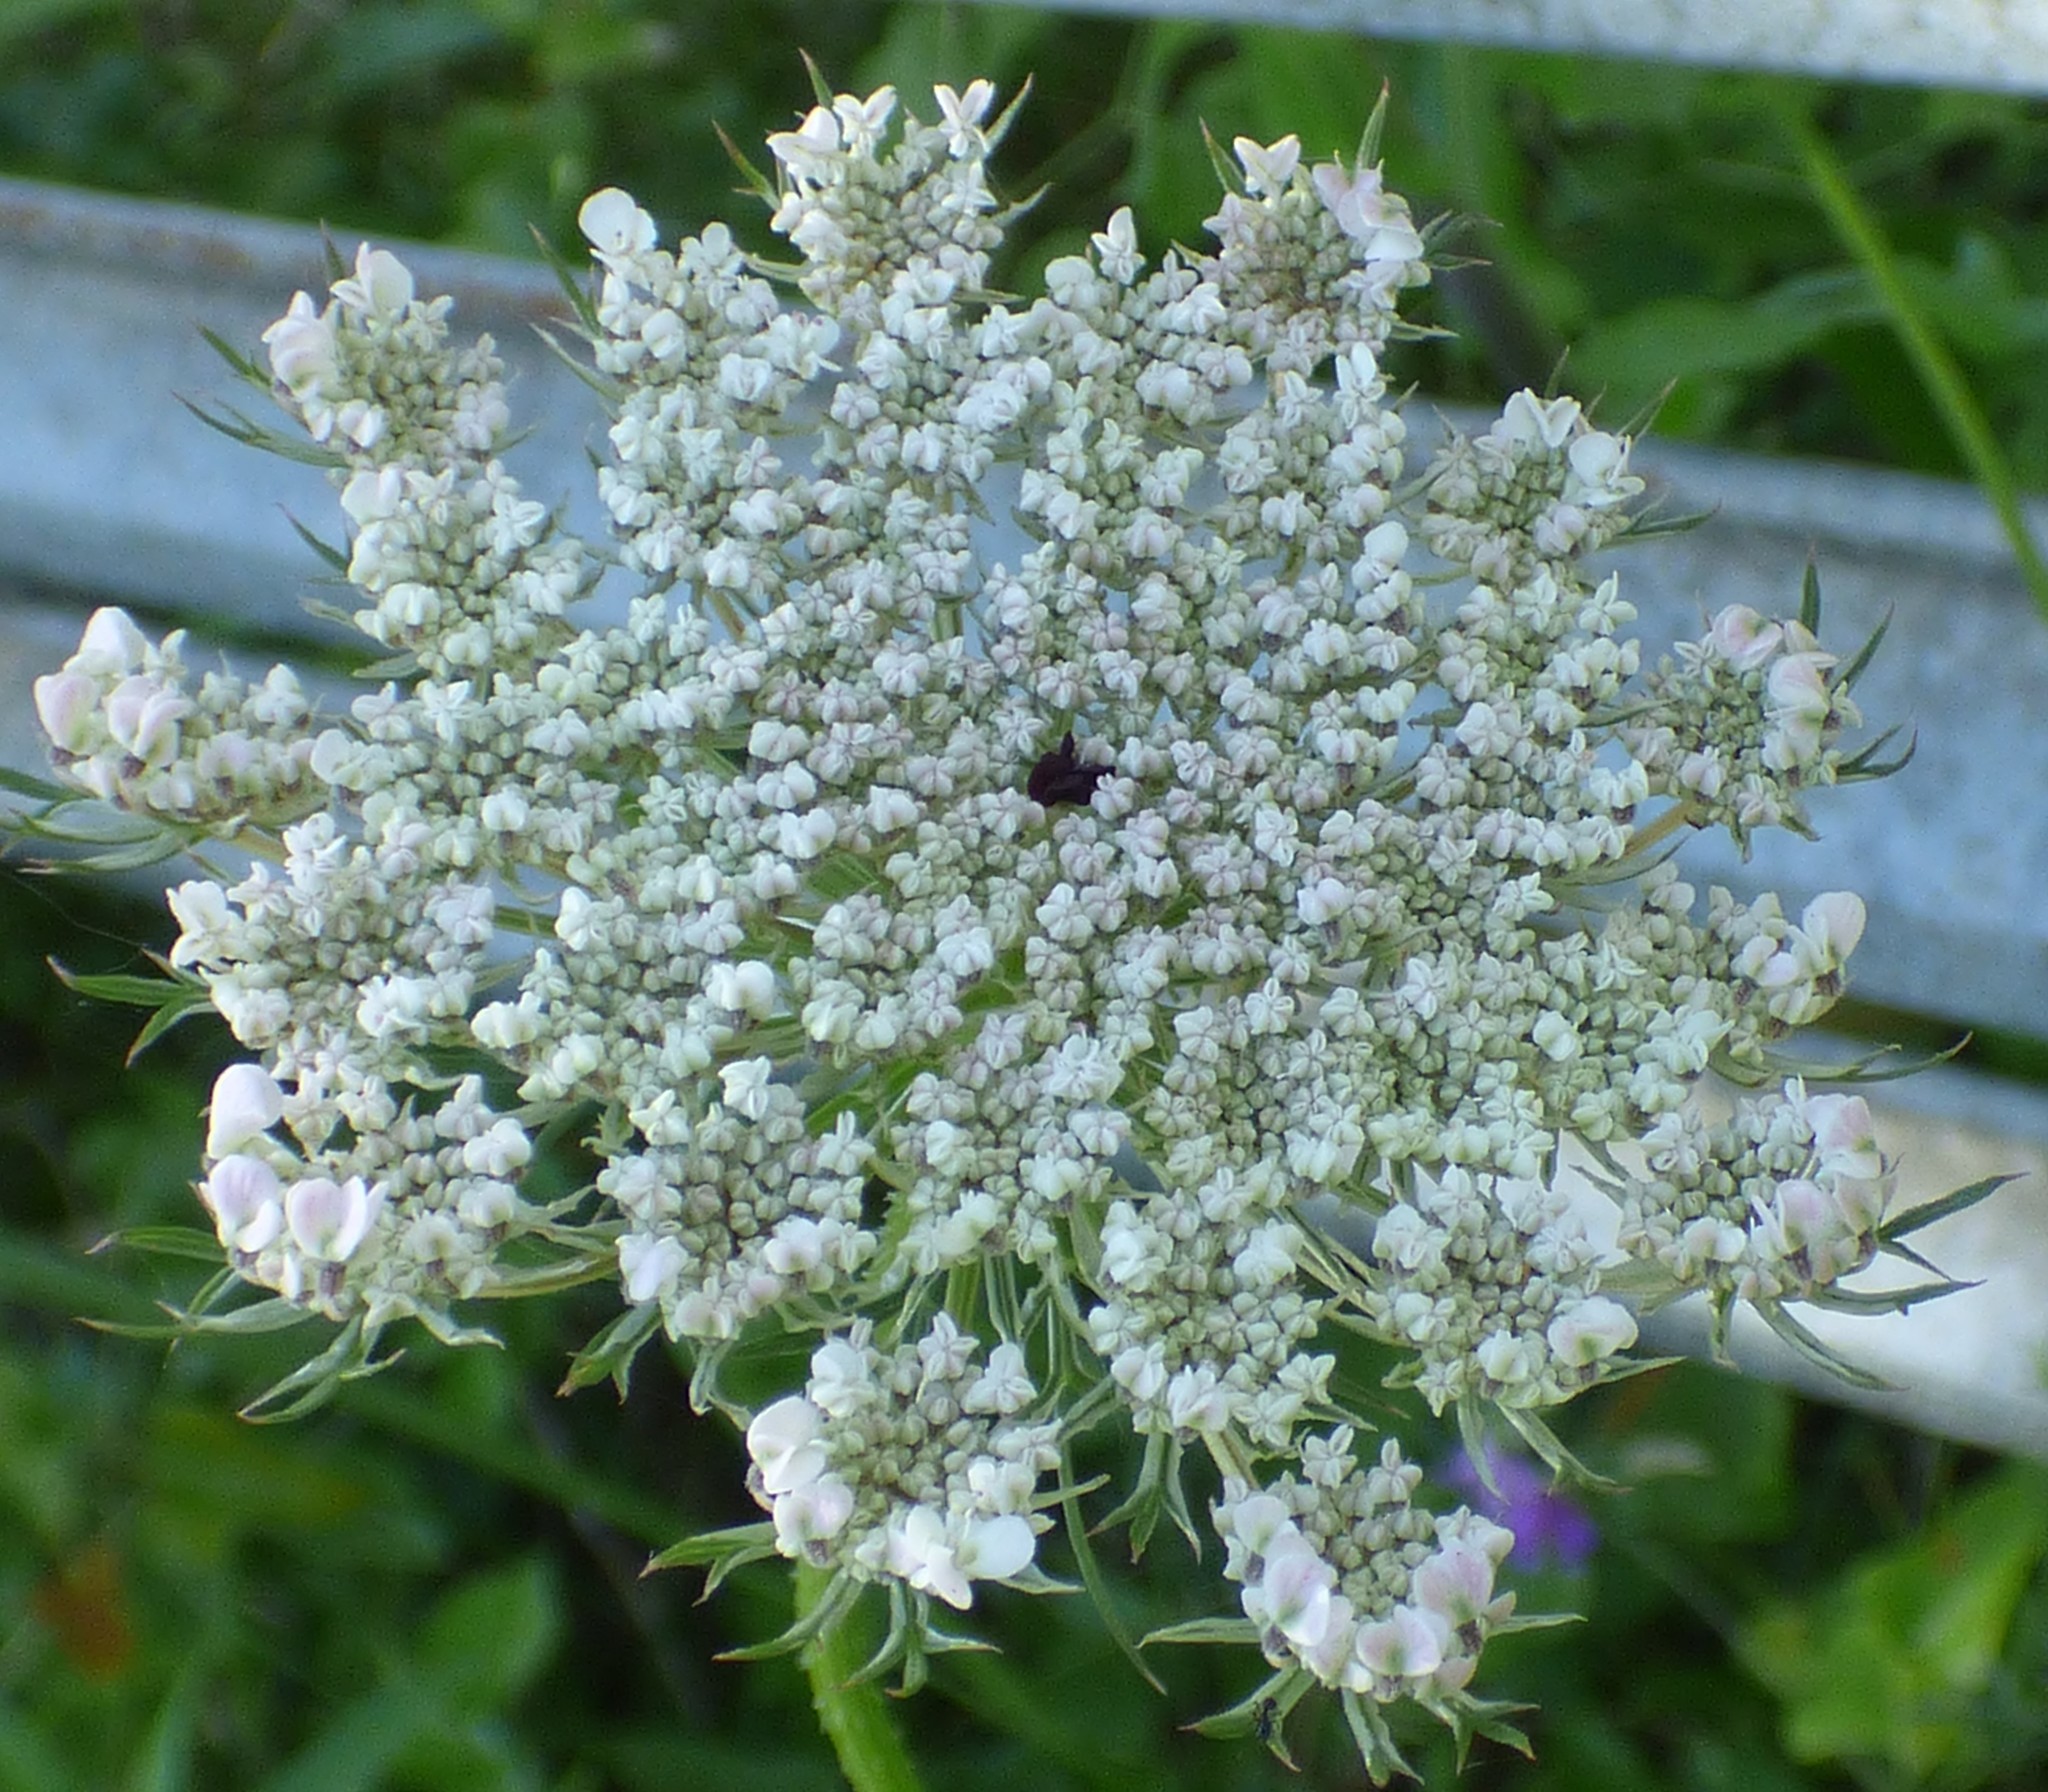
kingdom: Plantae
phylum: Tracheophyta
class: Magnoliopsida
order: Apiales
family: Apiaceae
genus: Daucus
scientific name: Daucus carota
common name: Wild carrot
